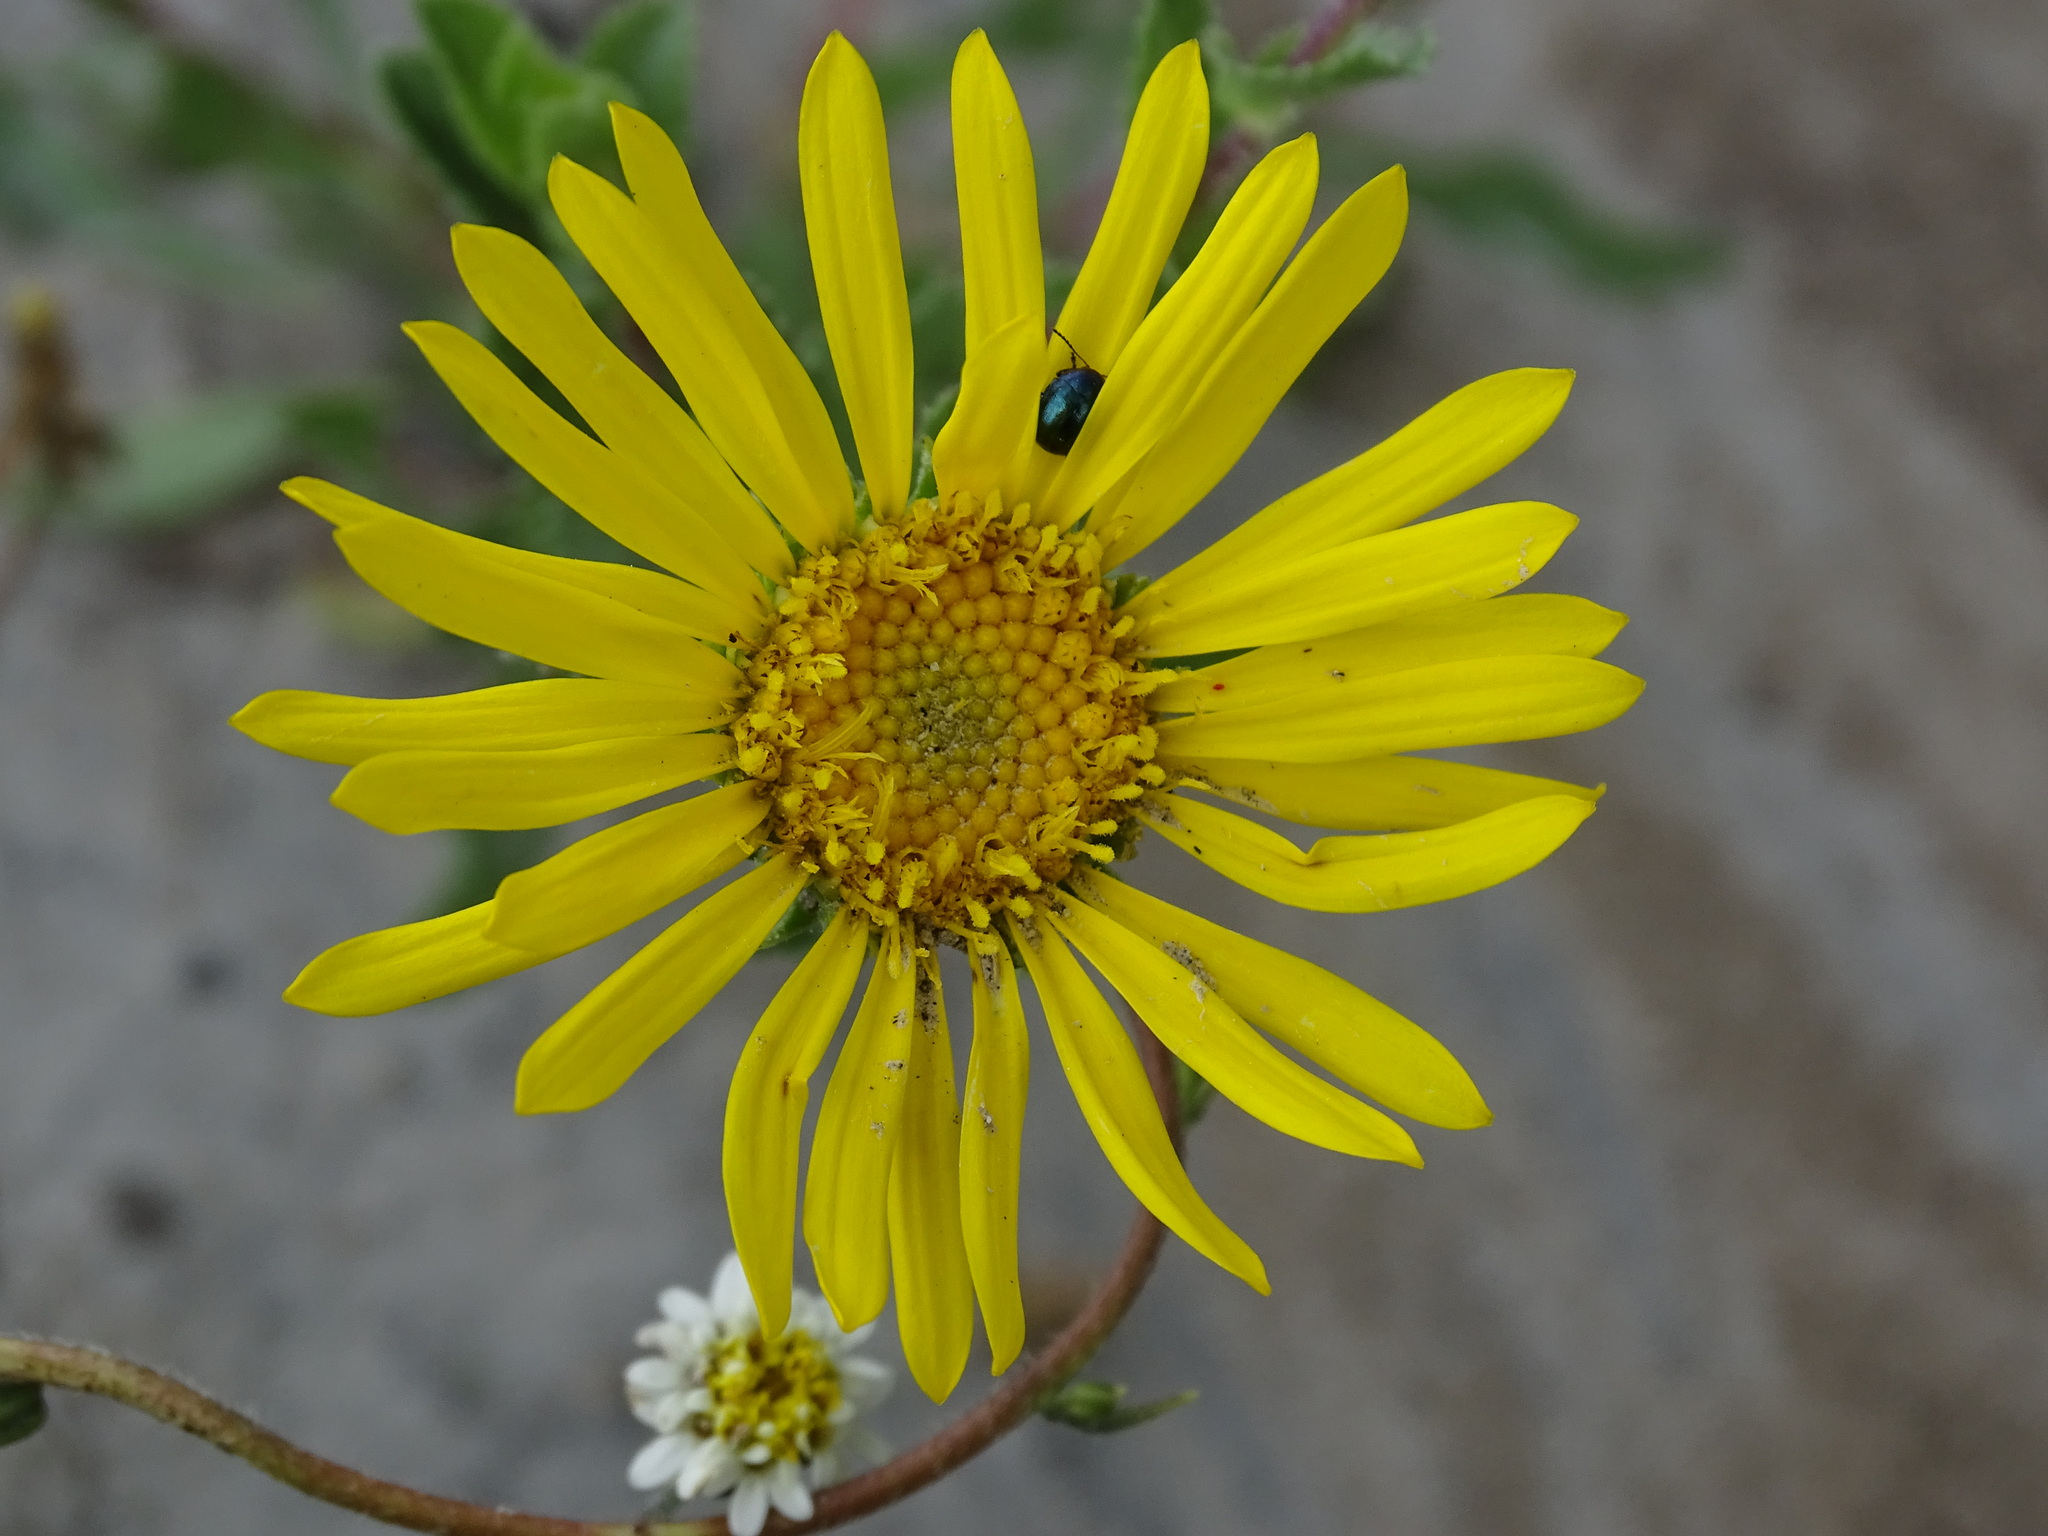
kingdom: Plantae
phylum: Tracheophyta
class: Magnoliopsida
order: Asterales
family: Asteraceae
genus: Grindelia
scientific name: Grindelia inuloides
